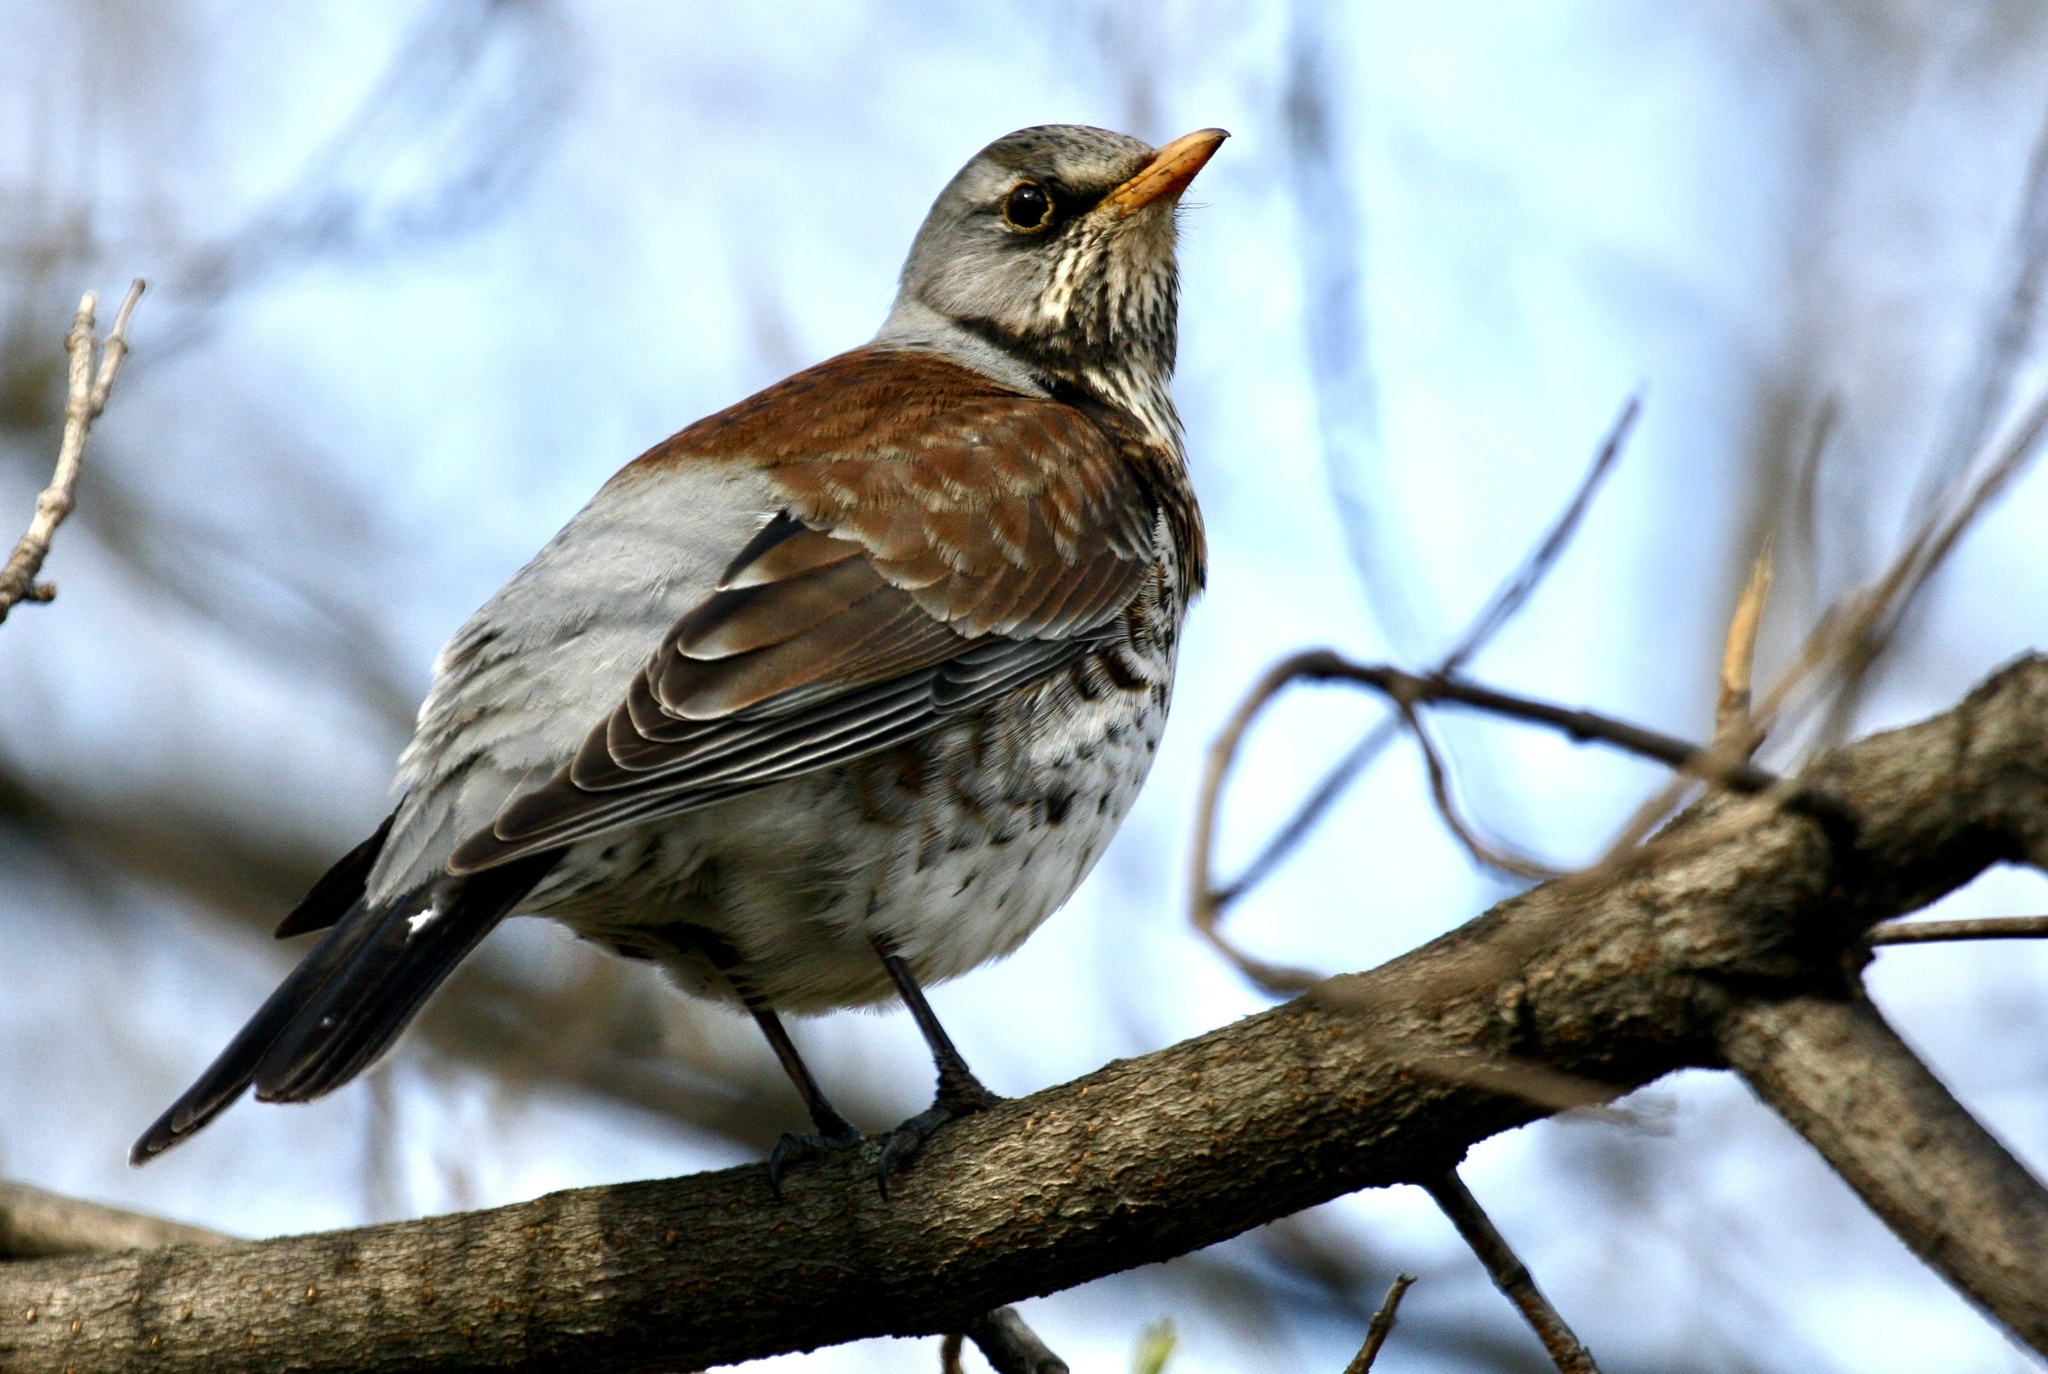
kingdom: Animalia
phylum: Chordata
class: Aves
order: Passeriformes
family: Turdidae
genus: Turdus
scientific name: Turdus pilaris
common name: Fieldfare
